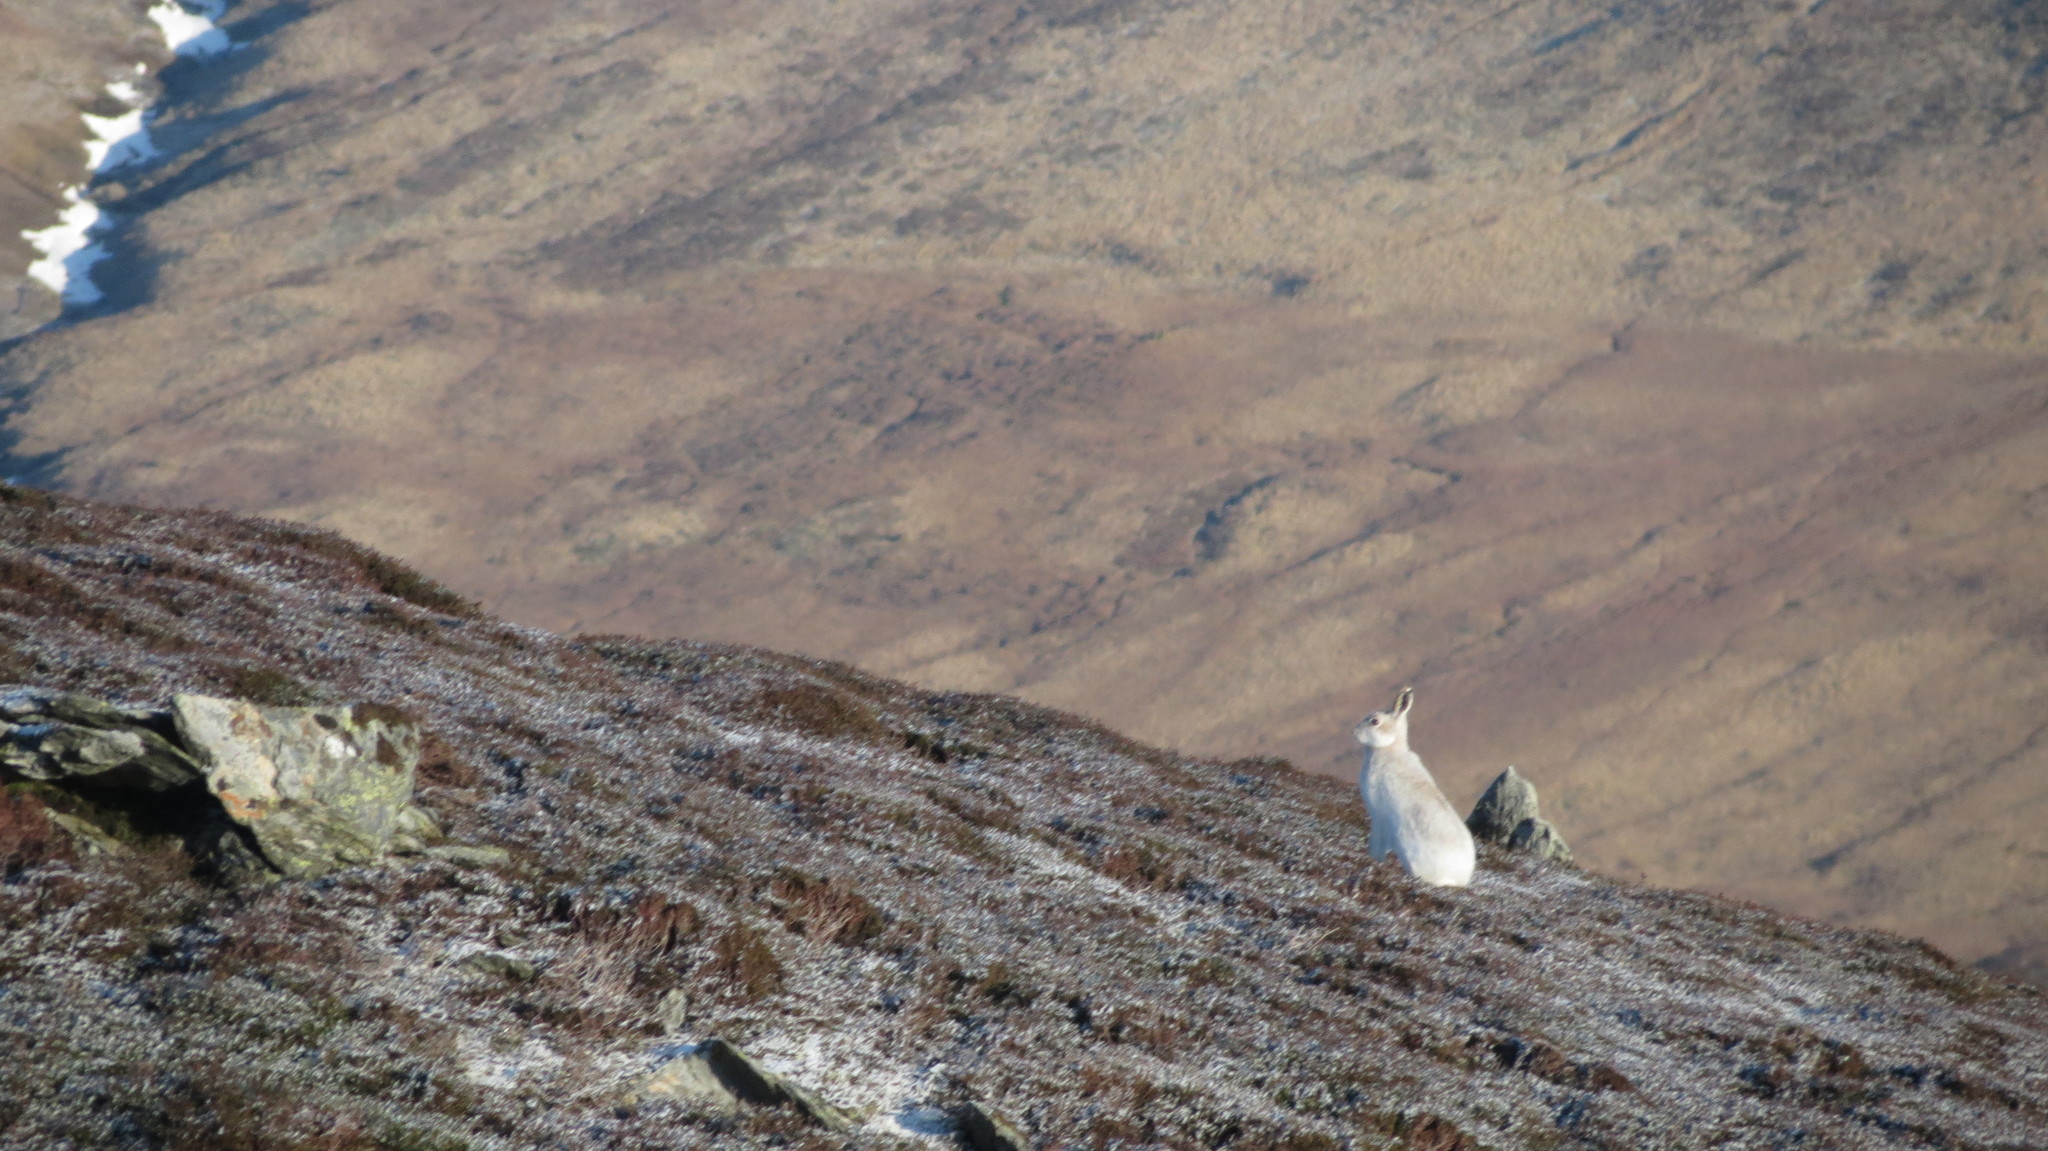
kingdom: Animalia
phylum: Chordata
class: Mammalia
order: Lagomorpha
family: Leporidae
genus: Lepus
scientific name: Lepus timidus
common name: Mountain hare
